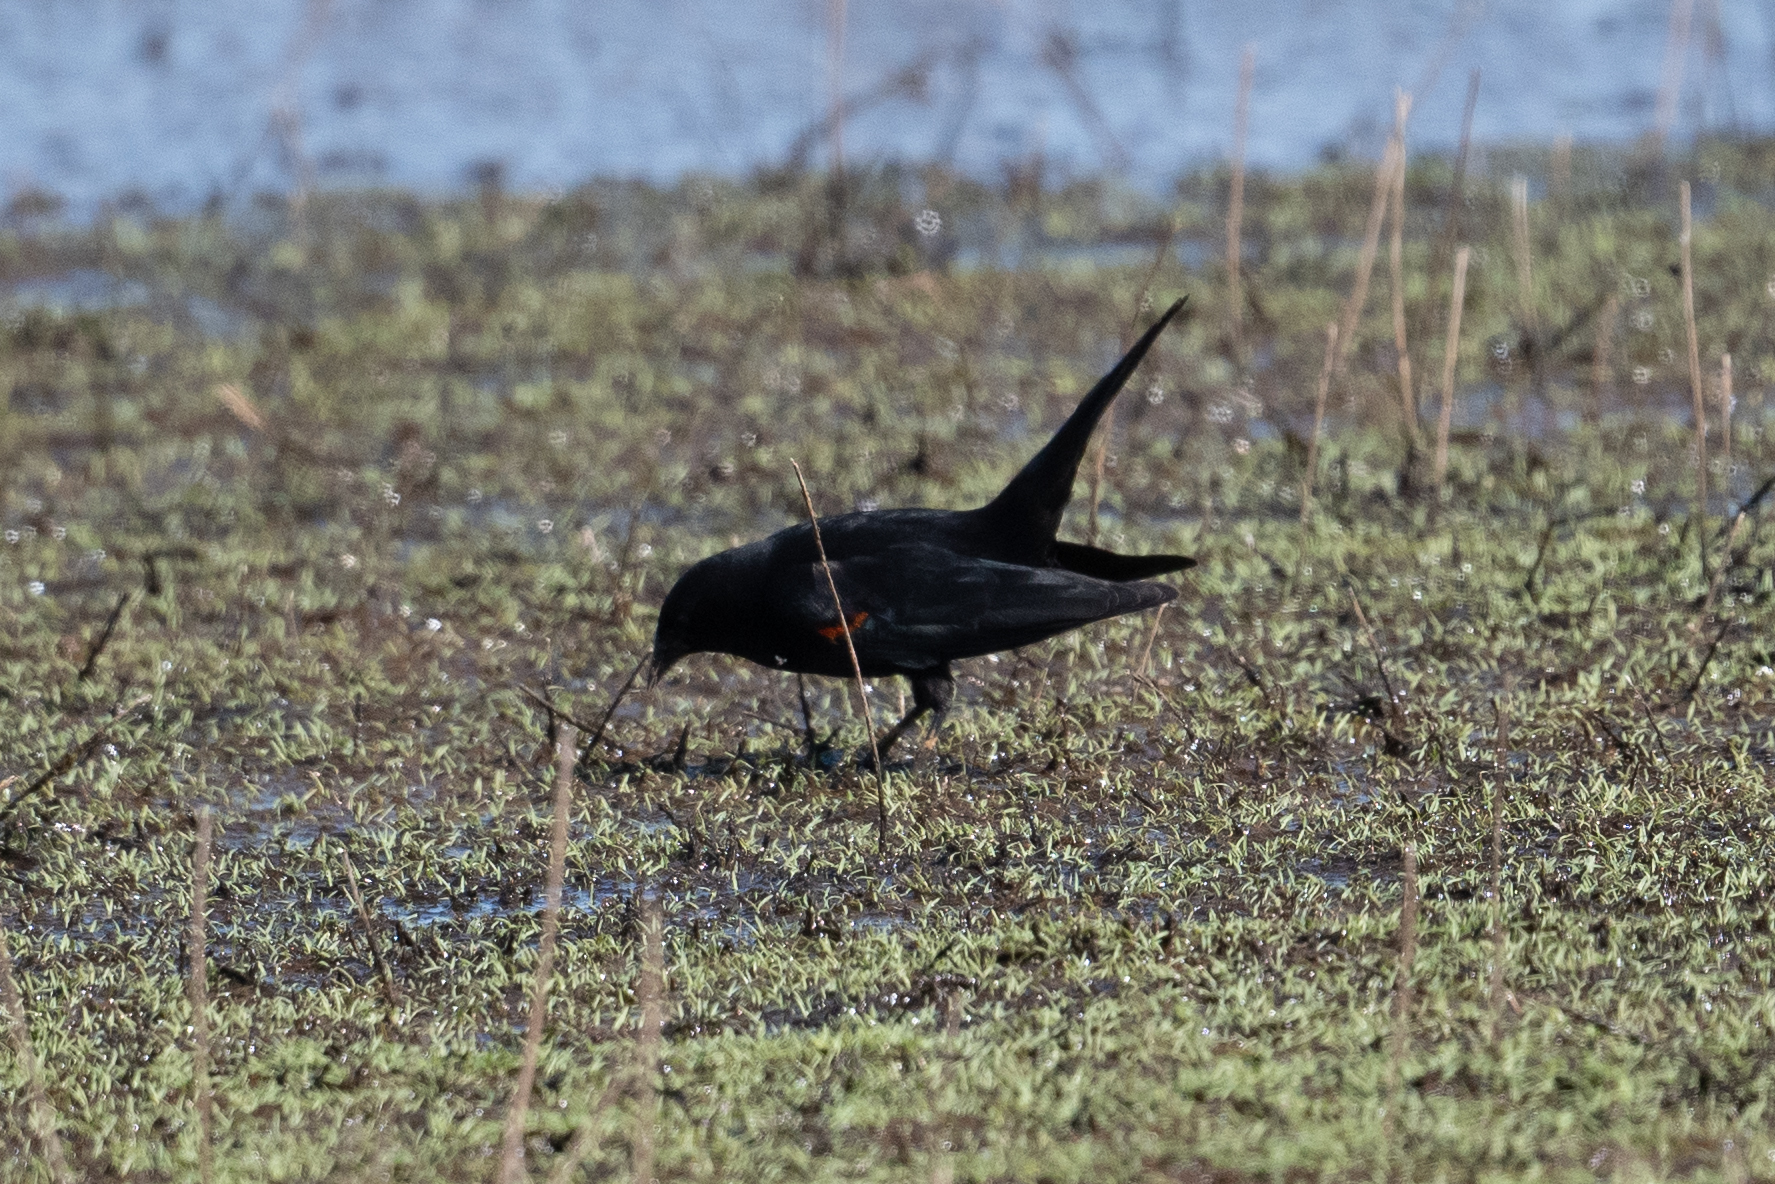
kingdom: Animalia
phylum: Chordata
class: Aves
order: Passeriformes
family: Icteridae
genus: Agelaius
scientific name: Agelaius phoeniceus
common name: Red-winged blackbird
